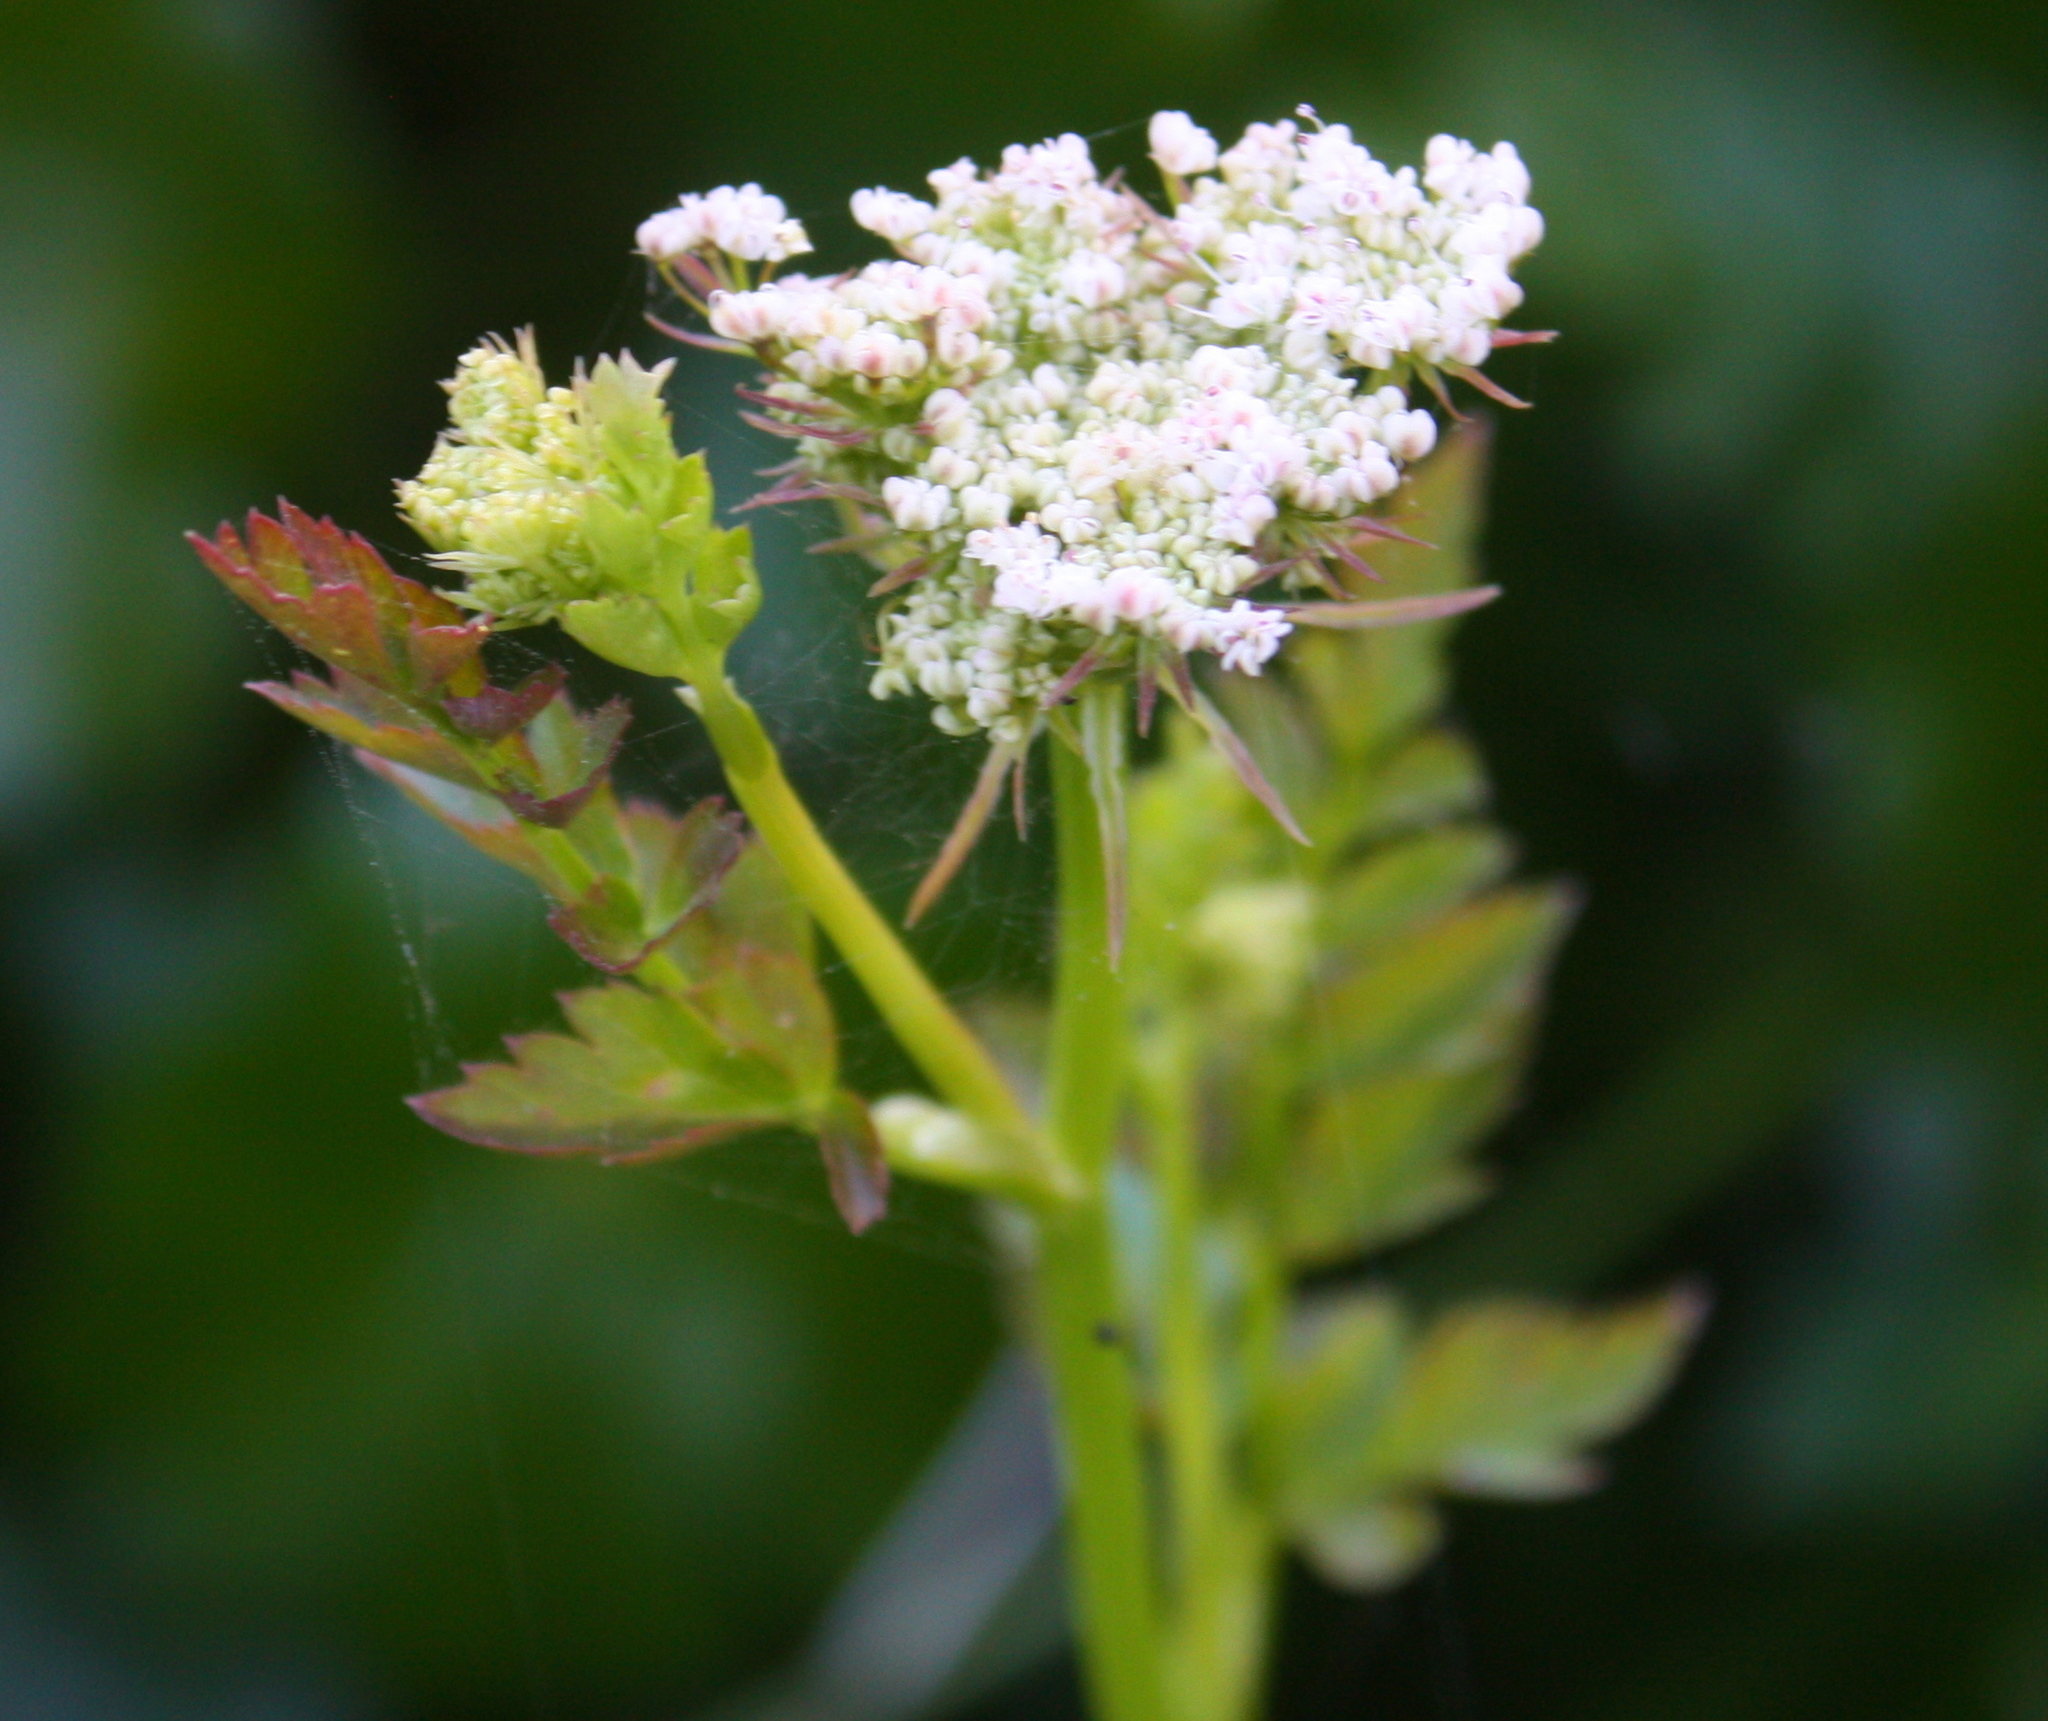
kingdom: Plantae
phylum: Tracheophyta
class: Magnoliopsida
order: Apiales
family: Apiaceae
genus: Oenanthe
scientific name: Oenanthe sarmentosa
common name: American water-parsley
